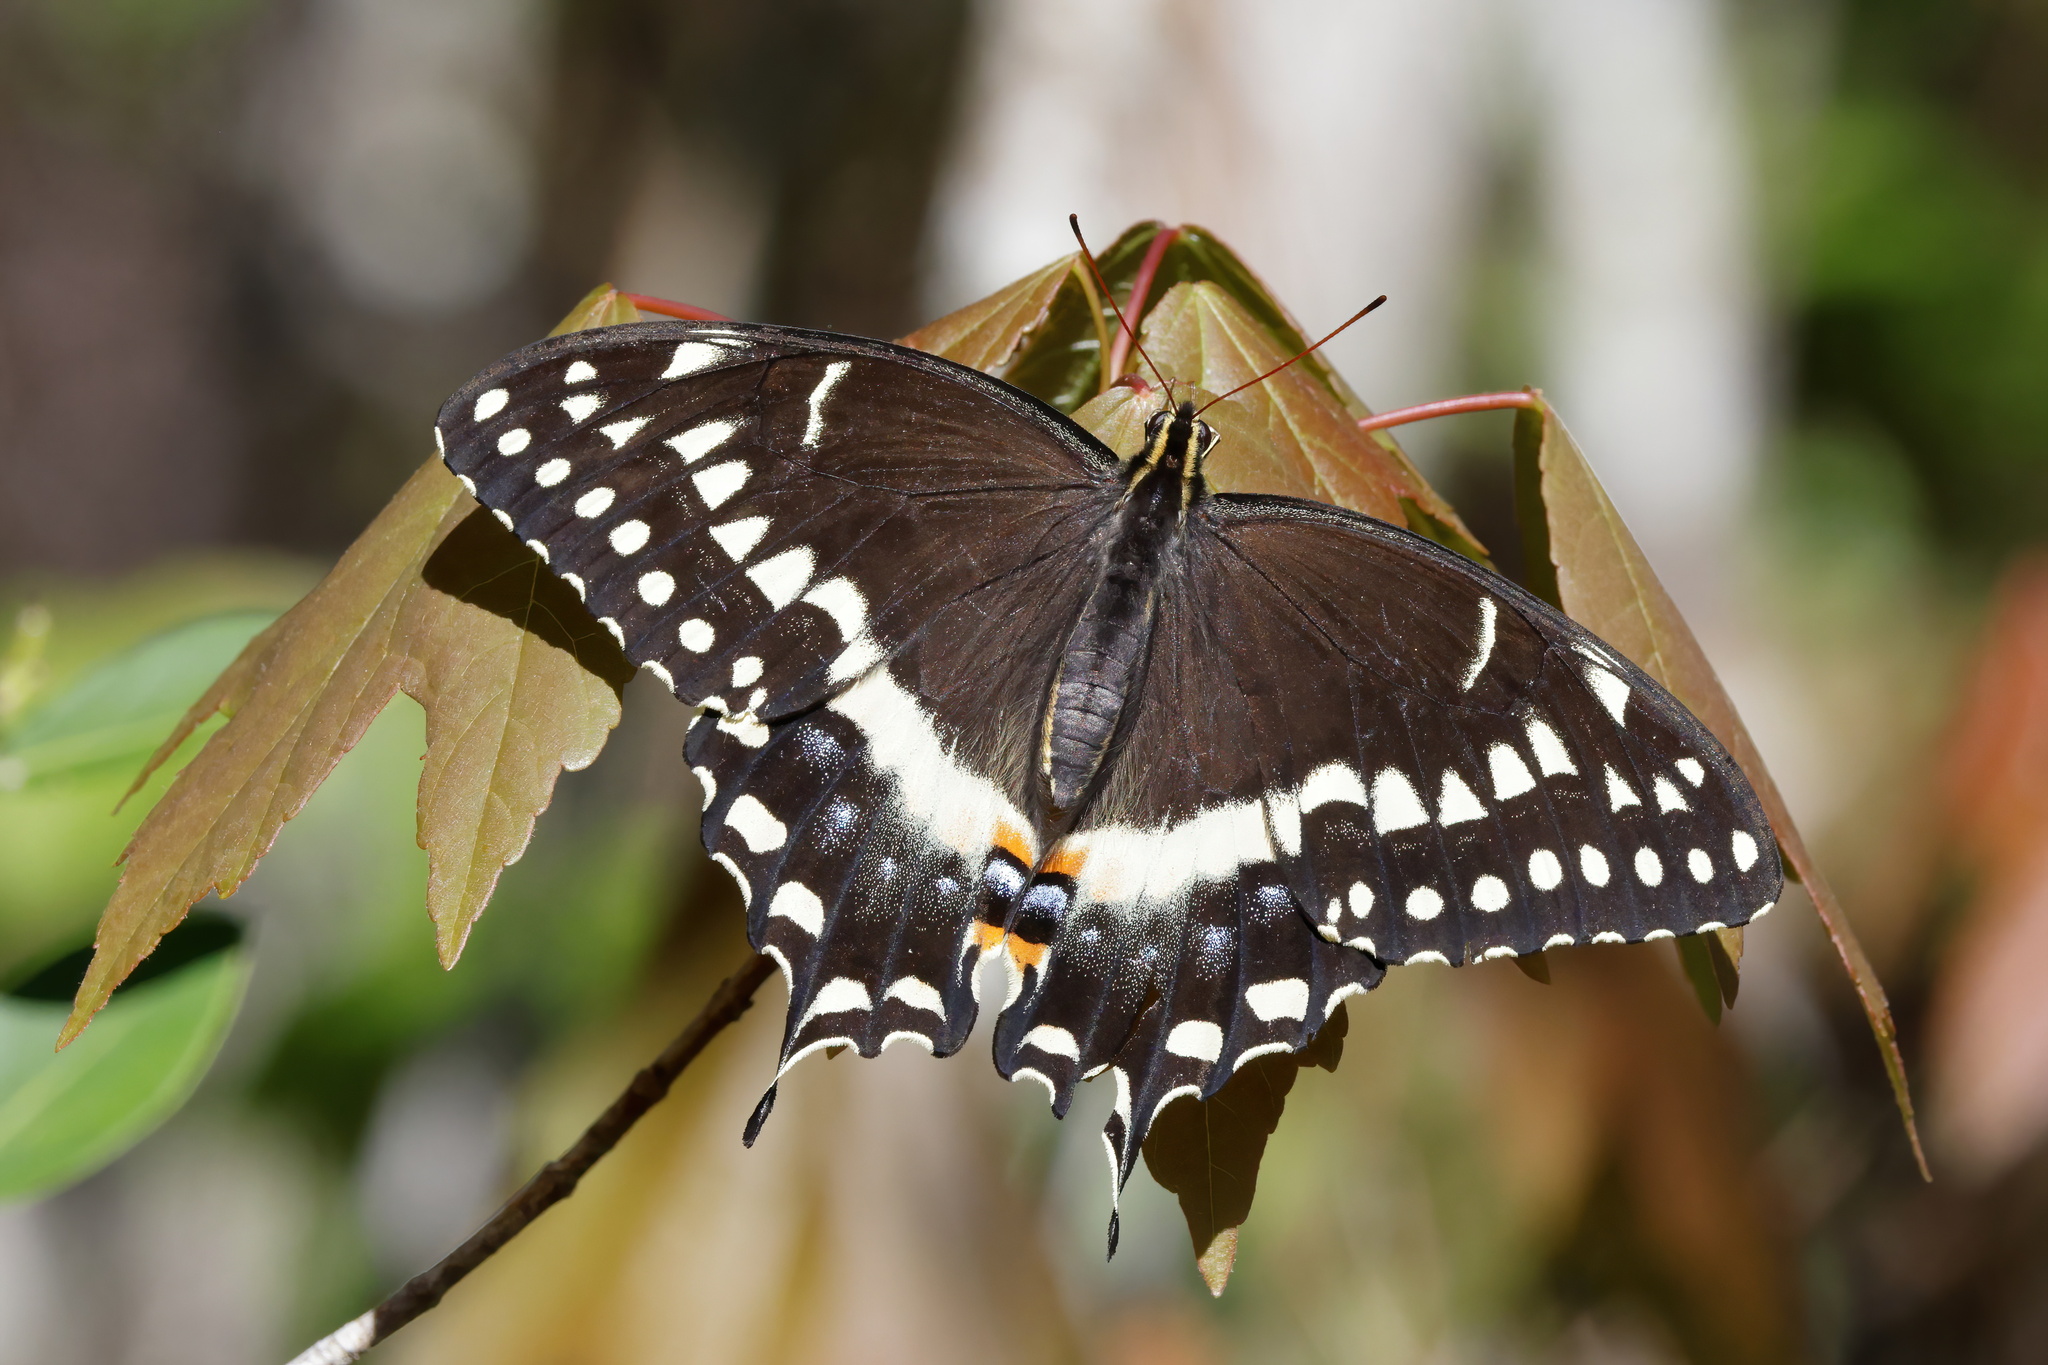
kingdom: Animalia
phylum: Arthropoda
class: Insecta
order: Lepidoptera
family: Papilionidae
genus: Papilio
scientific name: Papilio palamedes
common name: Palamedes swallowtail
